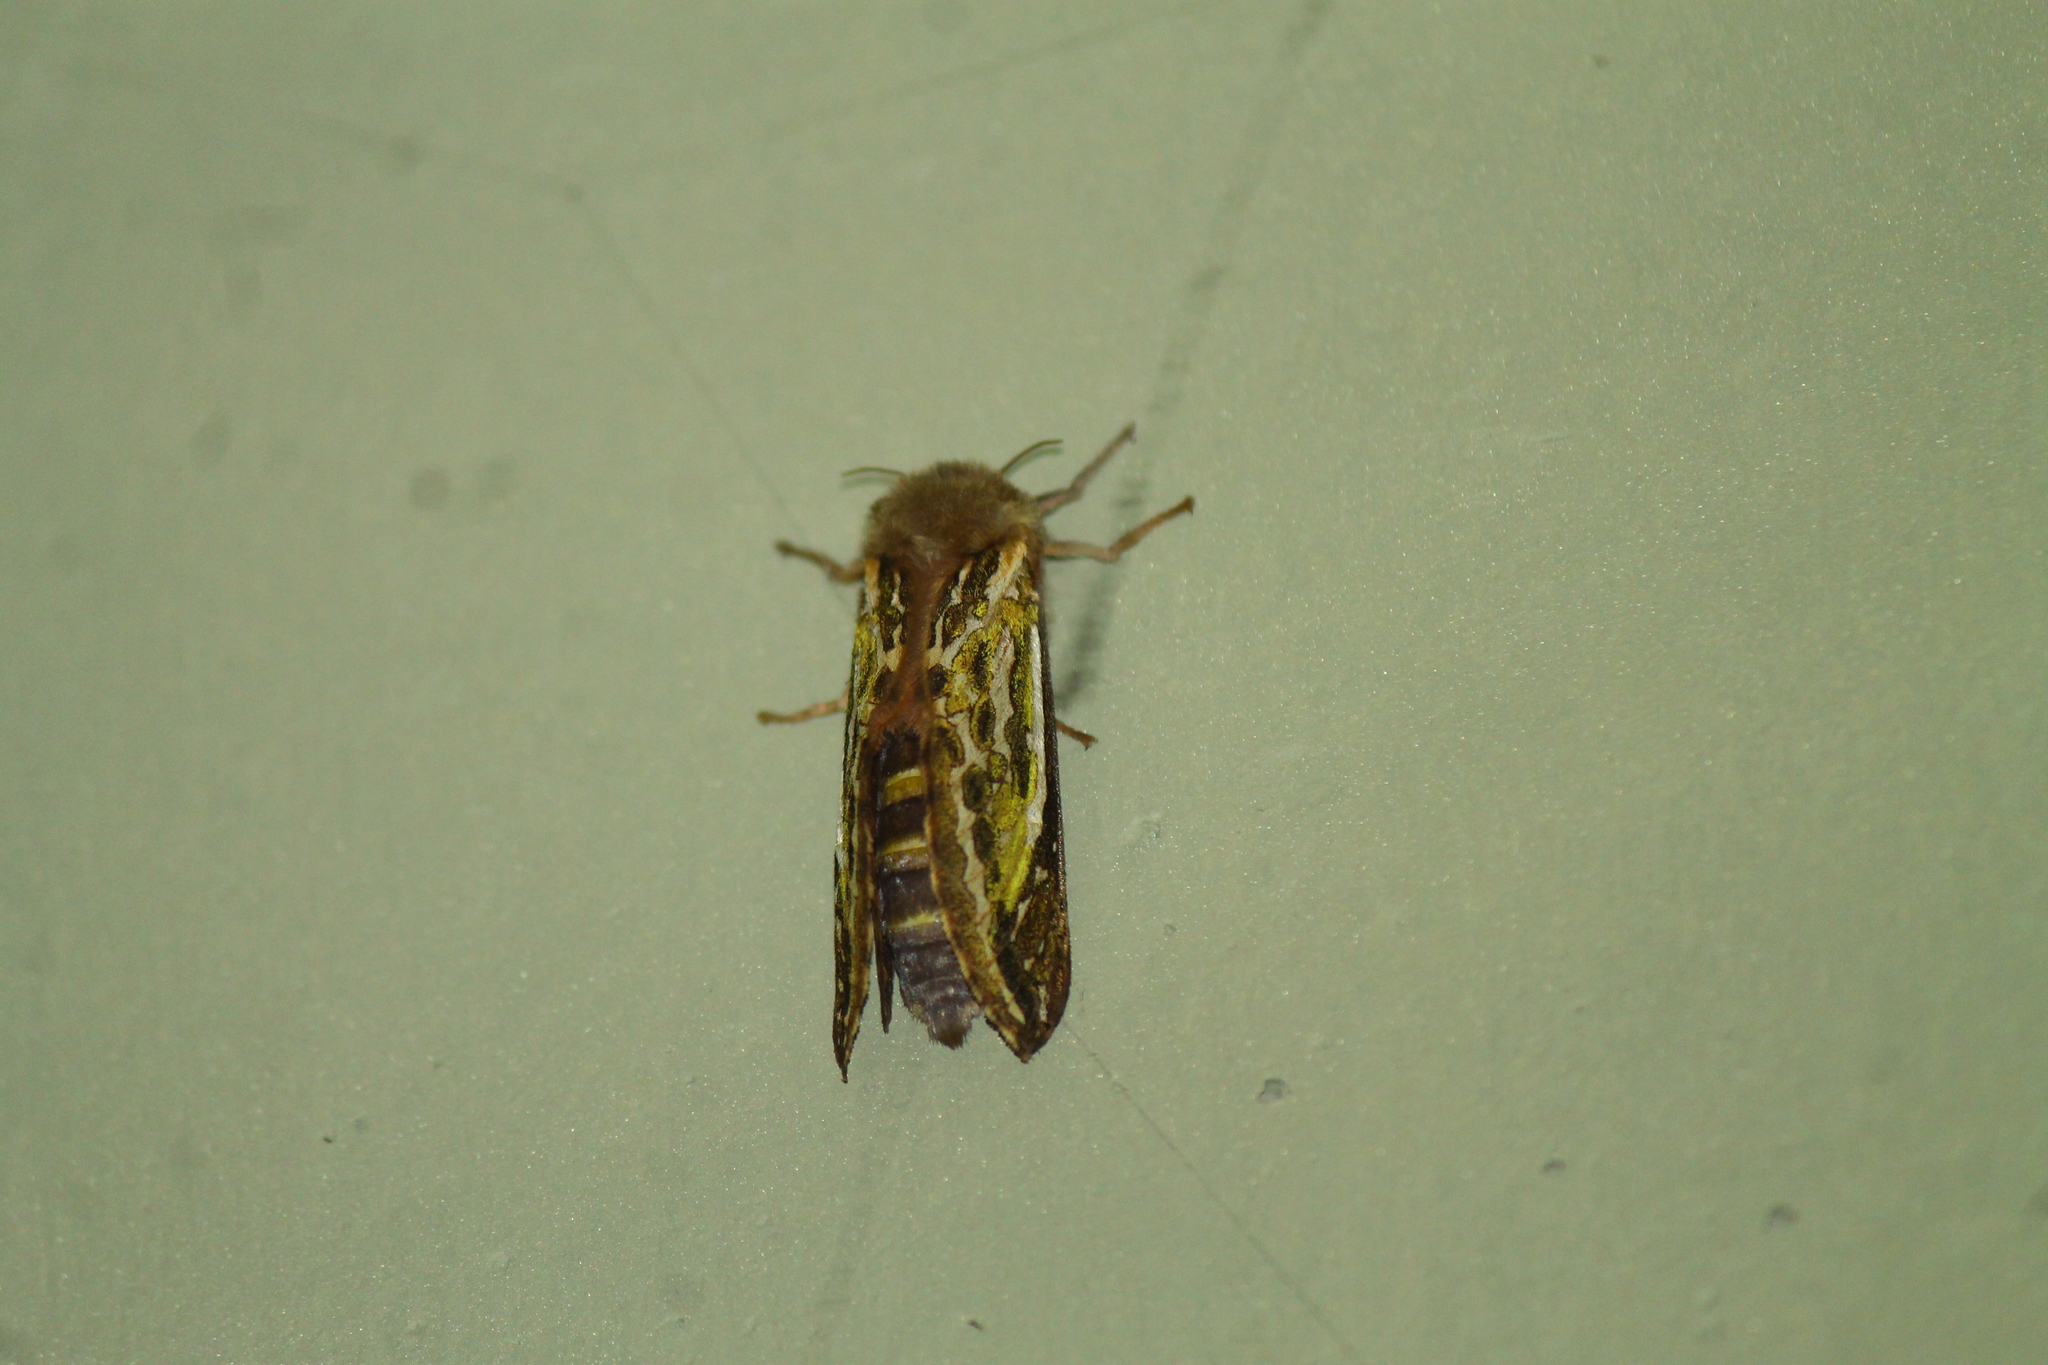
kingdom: Animalia
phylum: Arthropoda
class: Insecta
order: Lepidoptera
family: Hepialidae
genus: Callipielus
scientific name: Callipielus arenosus
